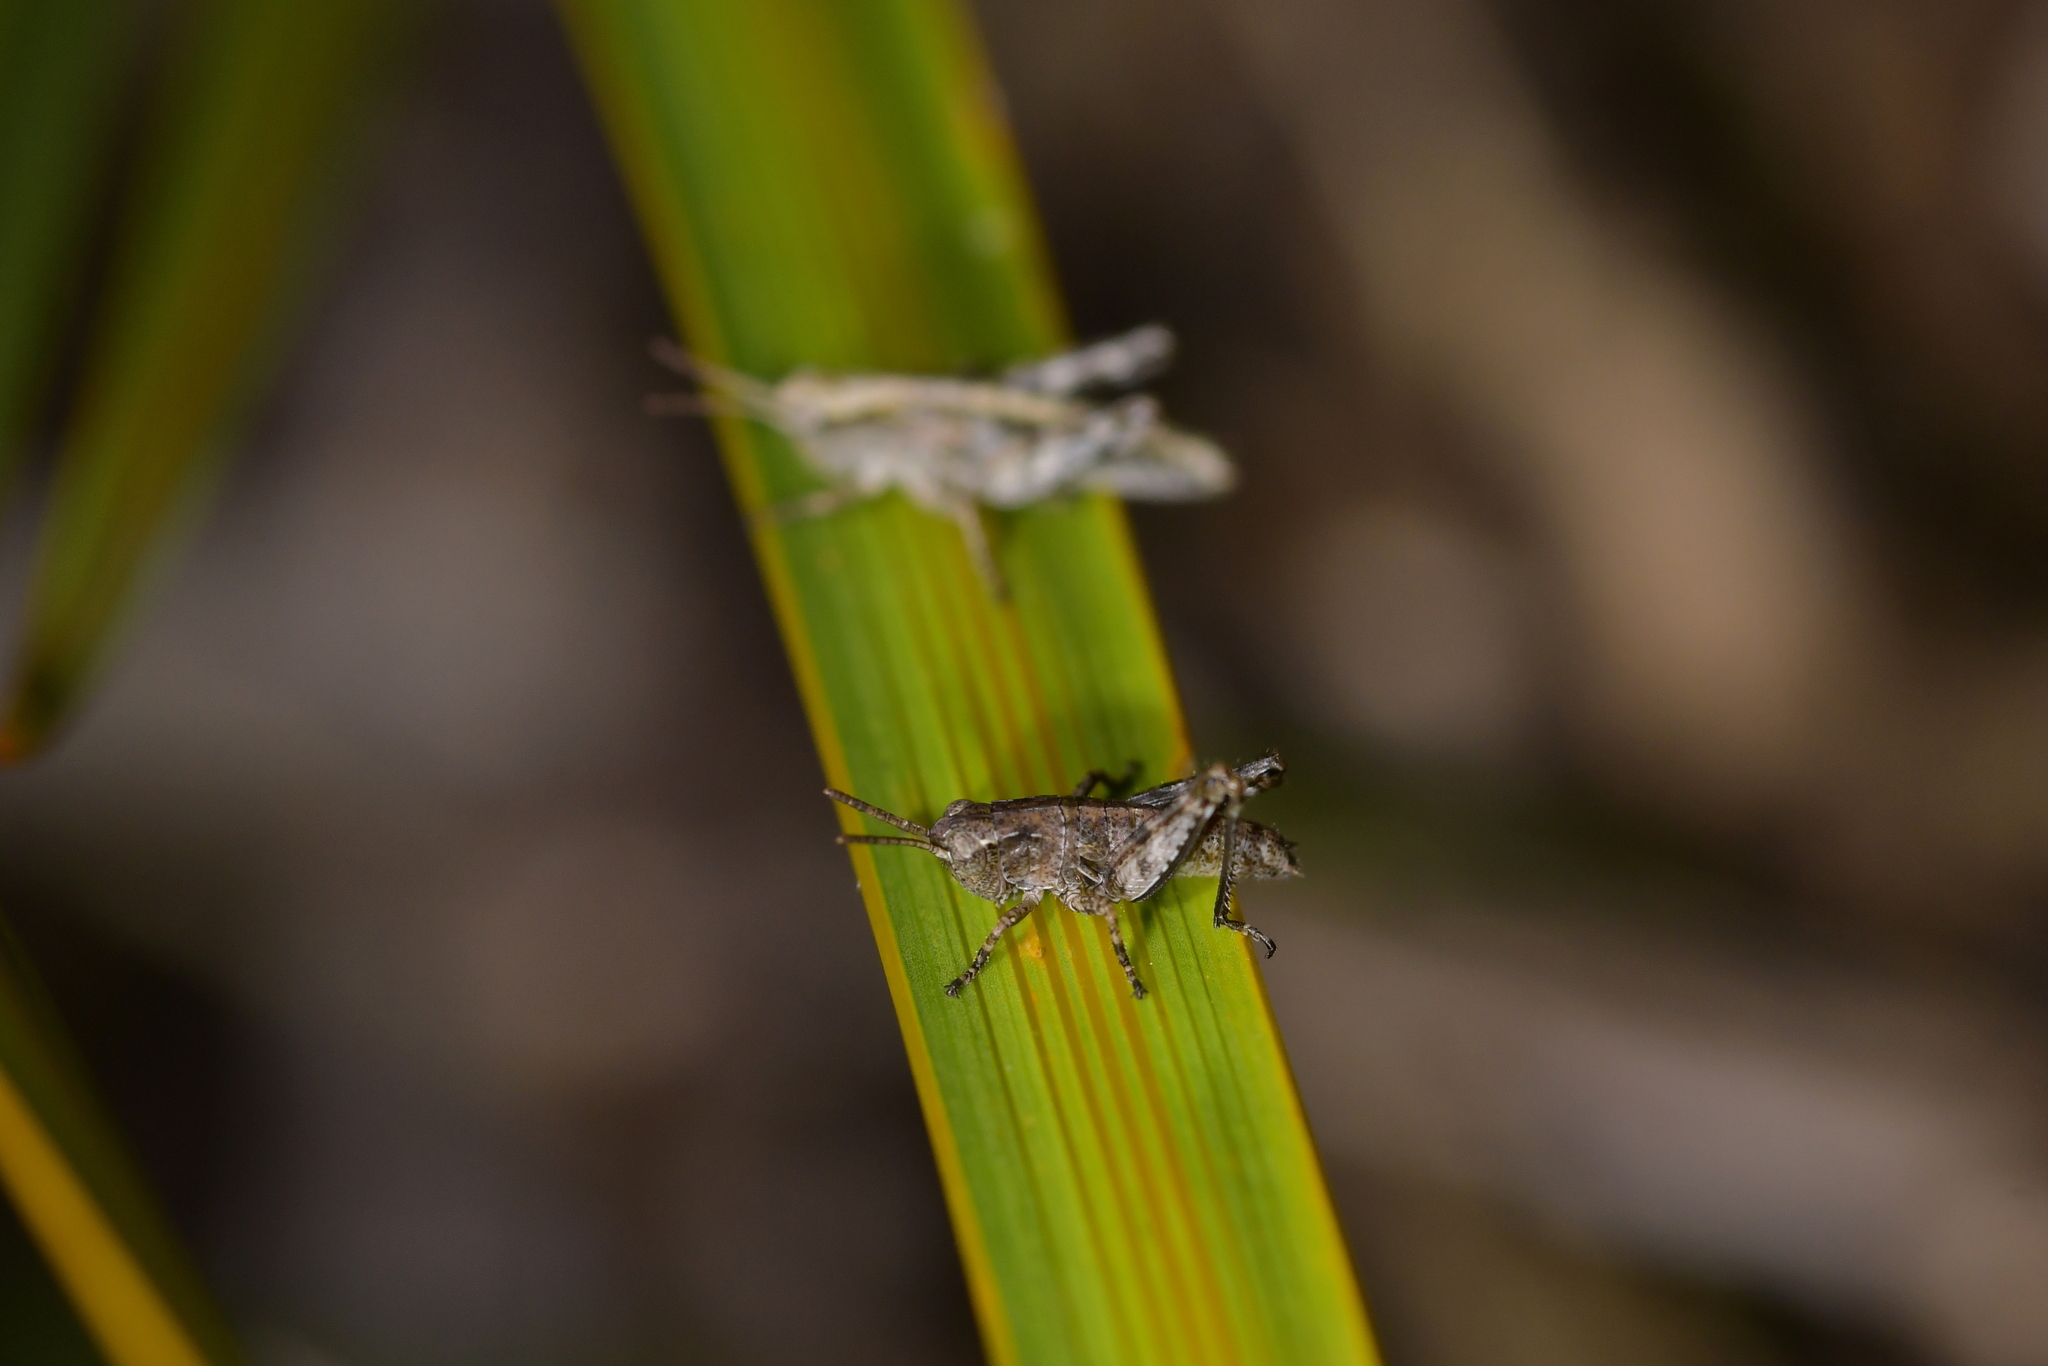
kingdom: Animalia
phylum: Arthropoda
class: Insecta
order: Orthoptera
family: Acrididae
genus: Phaulacridium
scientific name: Phaulacridium marginale
